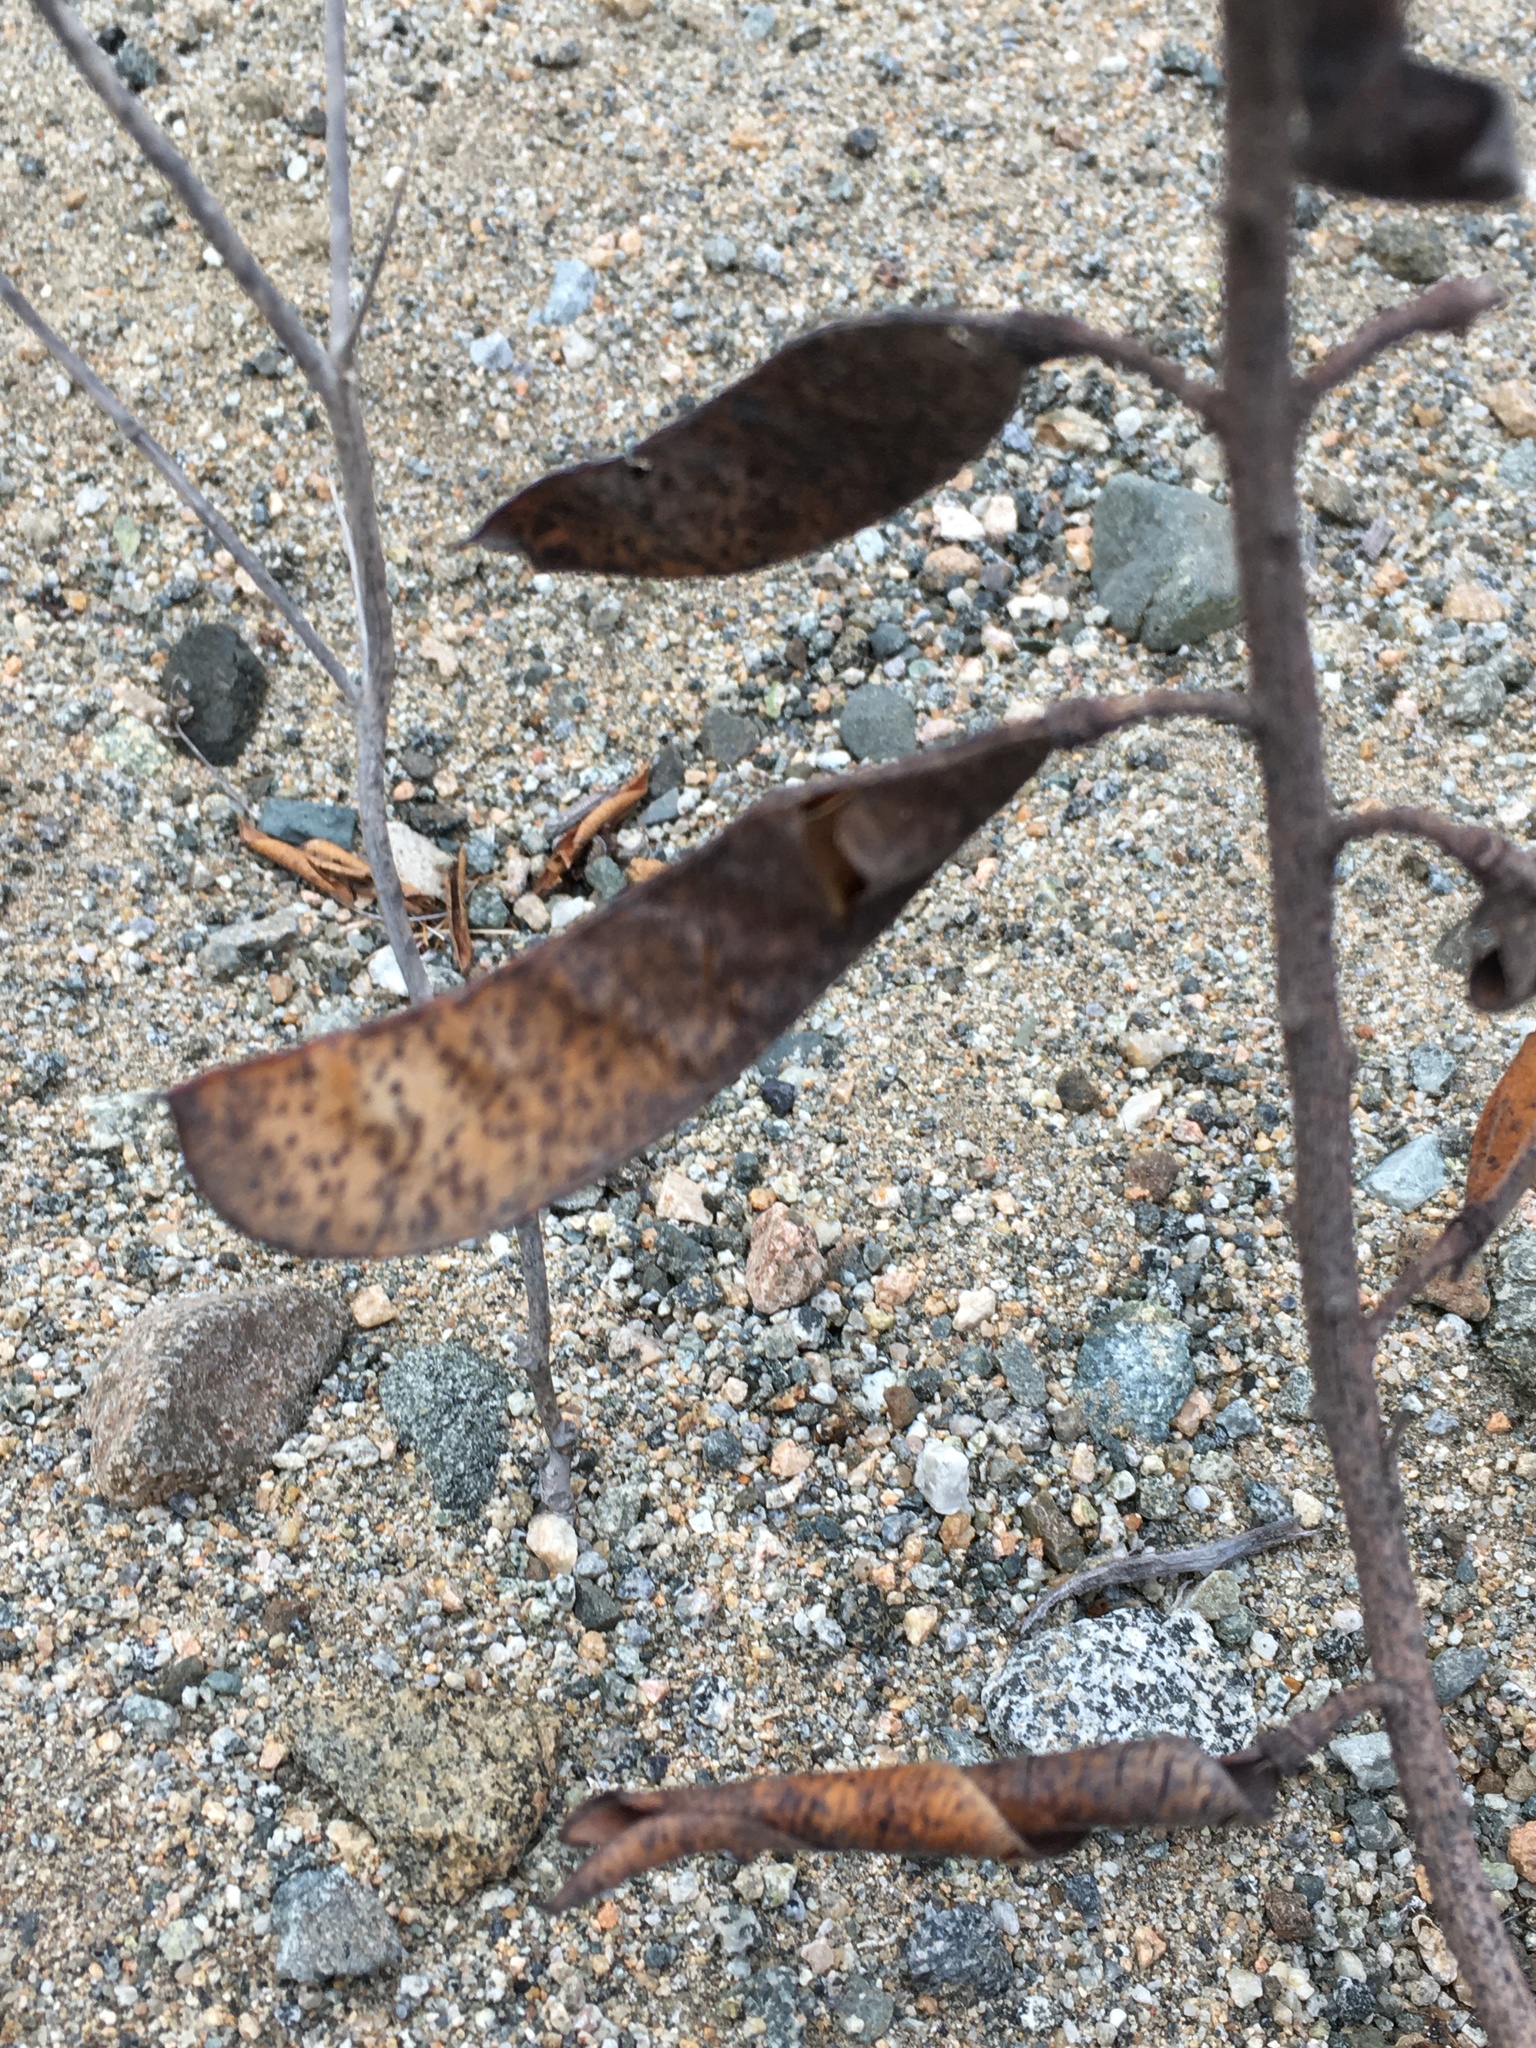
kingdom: Plantae
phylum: Tracheophyta
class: Magnoliopsida
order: Fabales
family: Fabaceae
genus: Erythrostemon
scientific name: Erythrostemon angulatus
